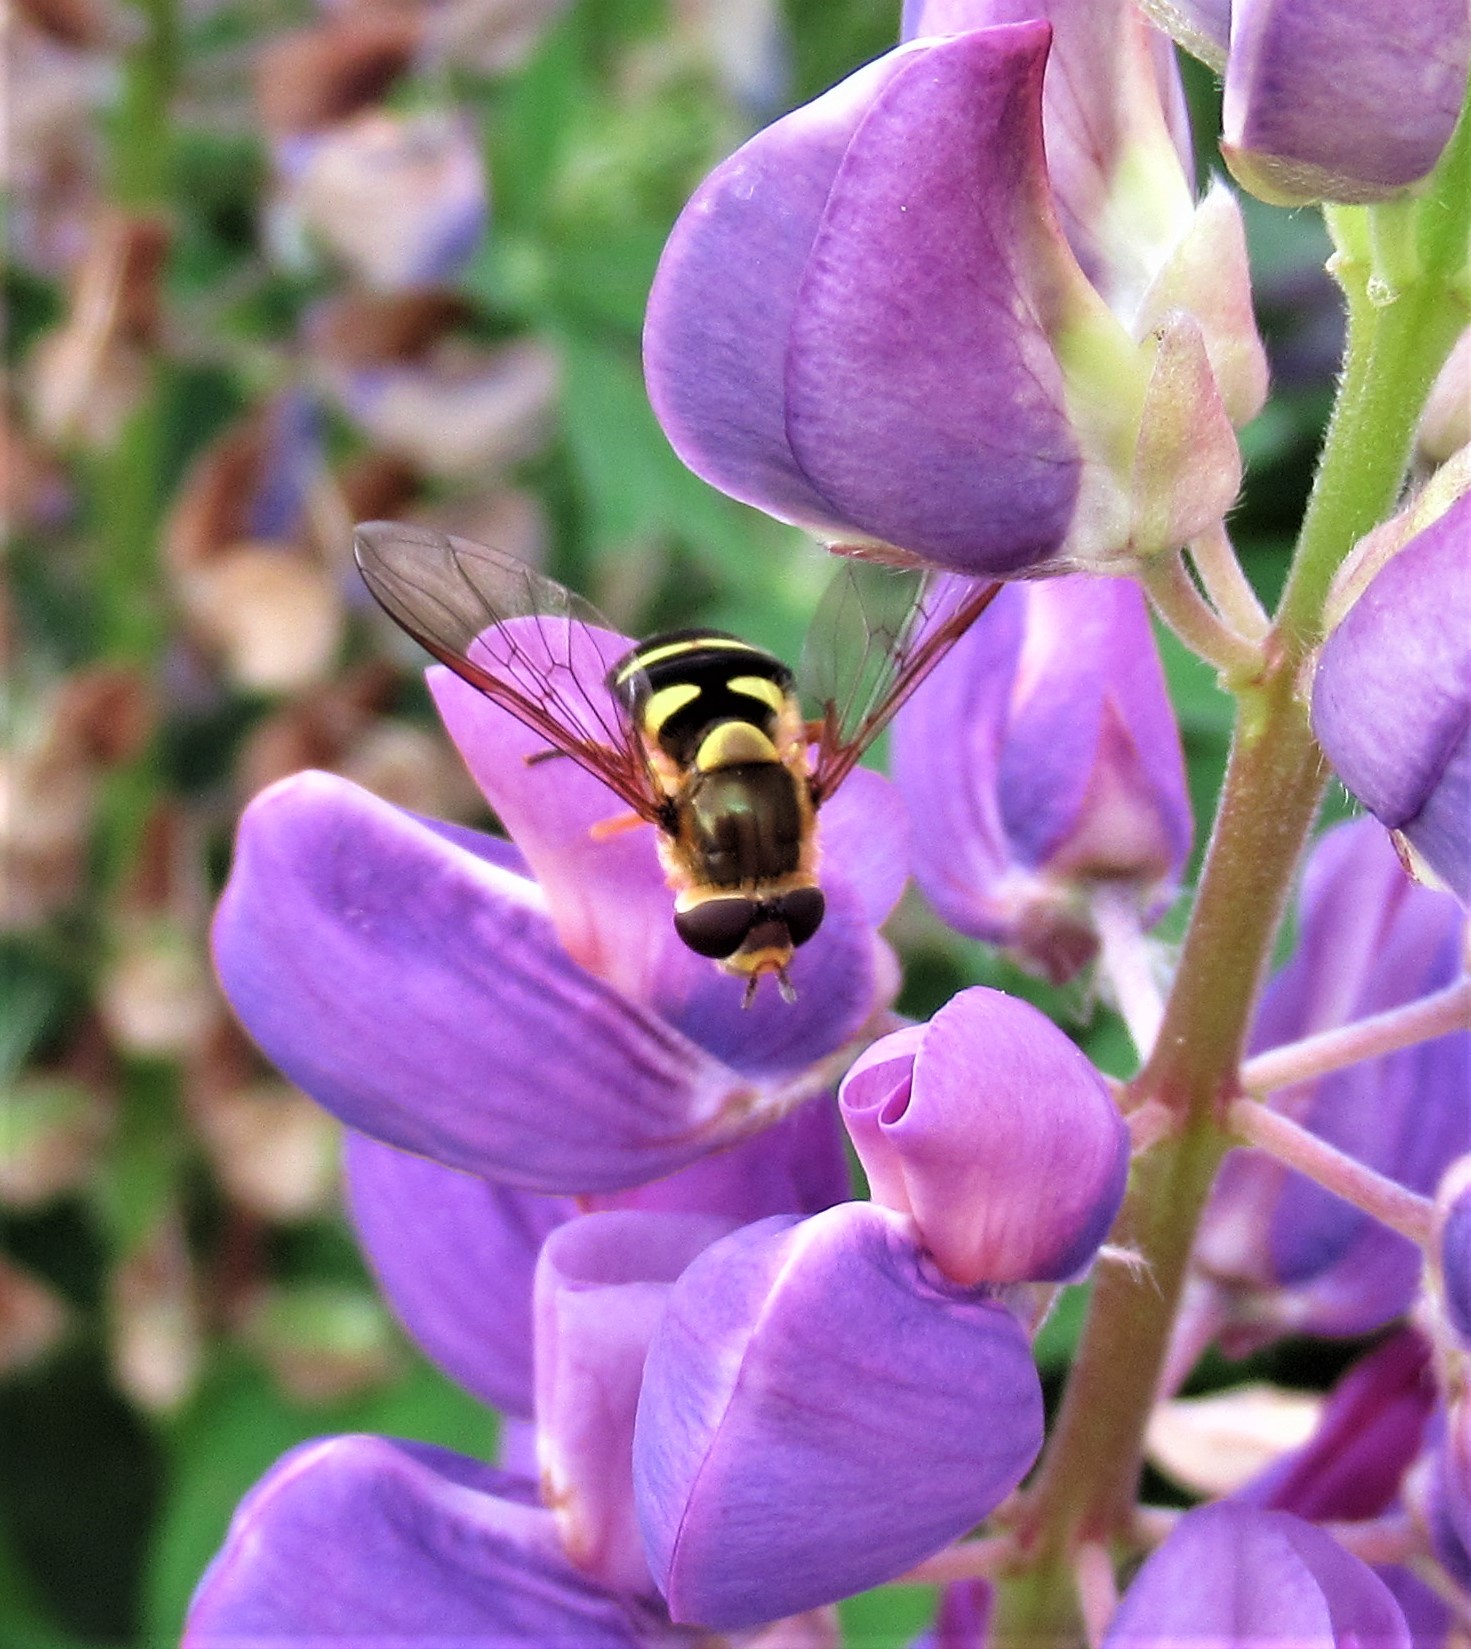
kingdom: Animalia
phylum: Arthropoda
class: Insecta
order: Diptera
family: Syrphidae
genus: Syrphus
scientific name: Syrphus opinator
